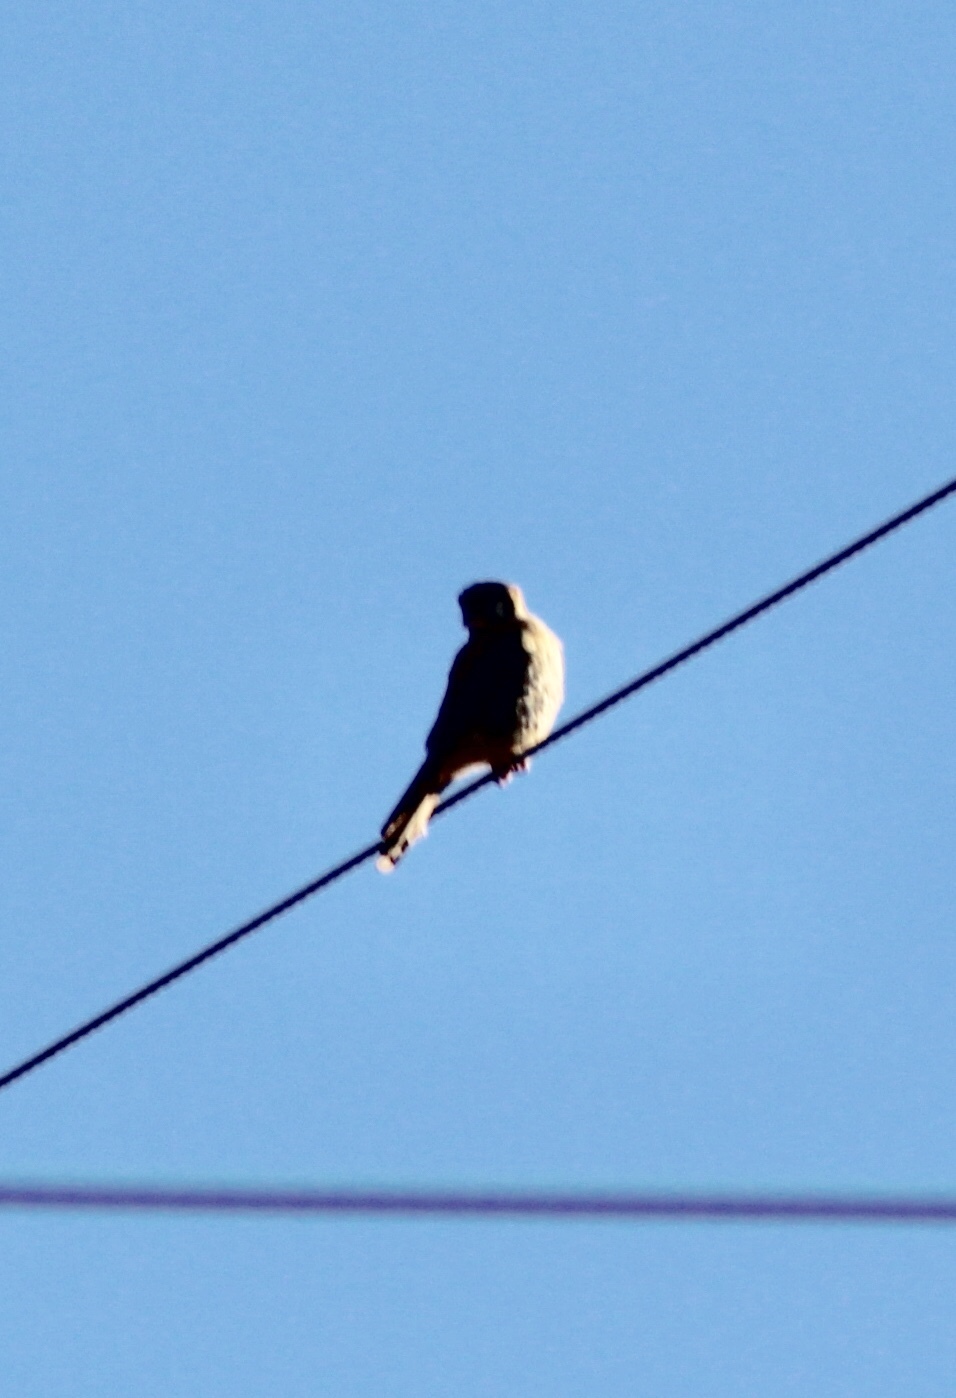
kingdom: Animalia
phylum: Chordata
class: Aves
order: Falconiformes
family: Falconidae
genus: Falco
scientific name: Falco sparverius
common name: American kestrel
